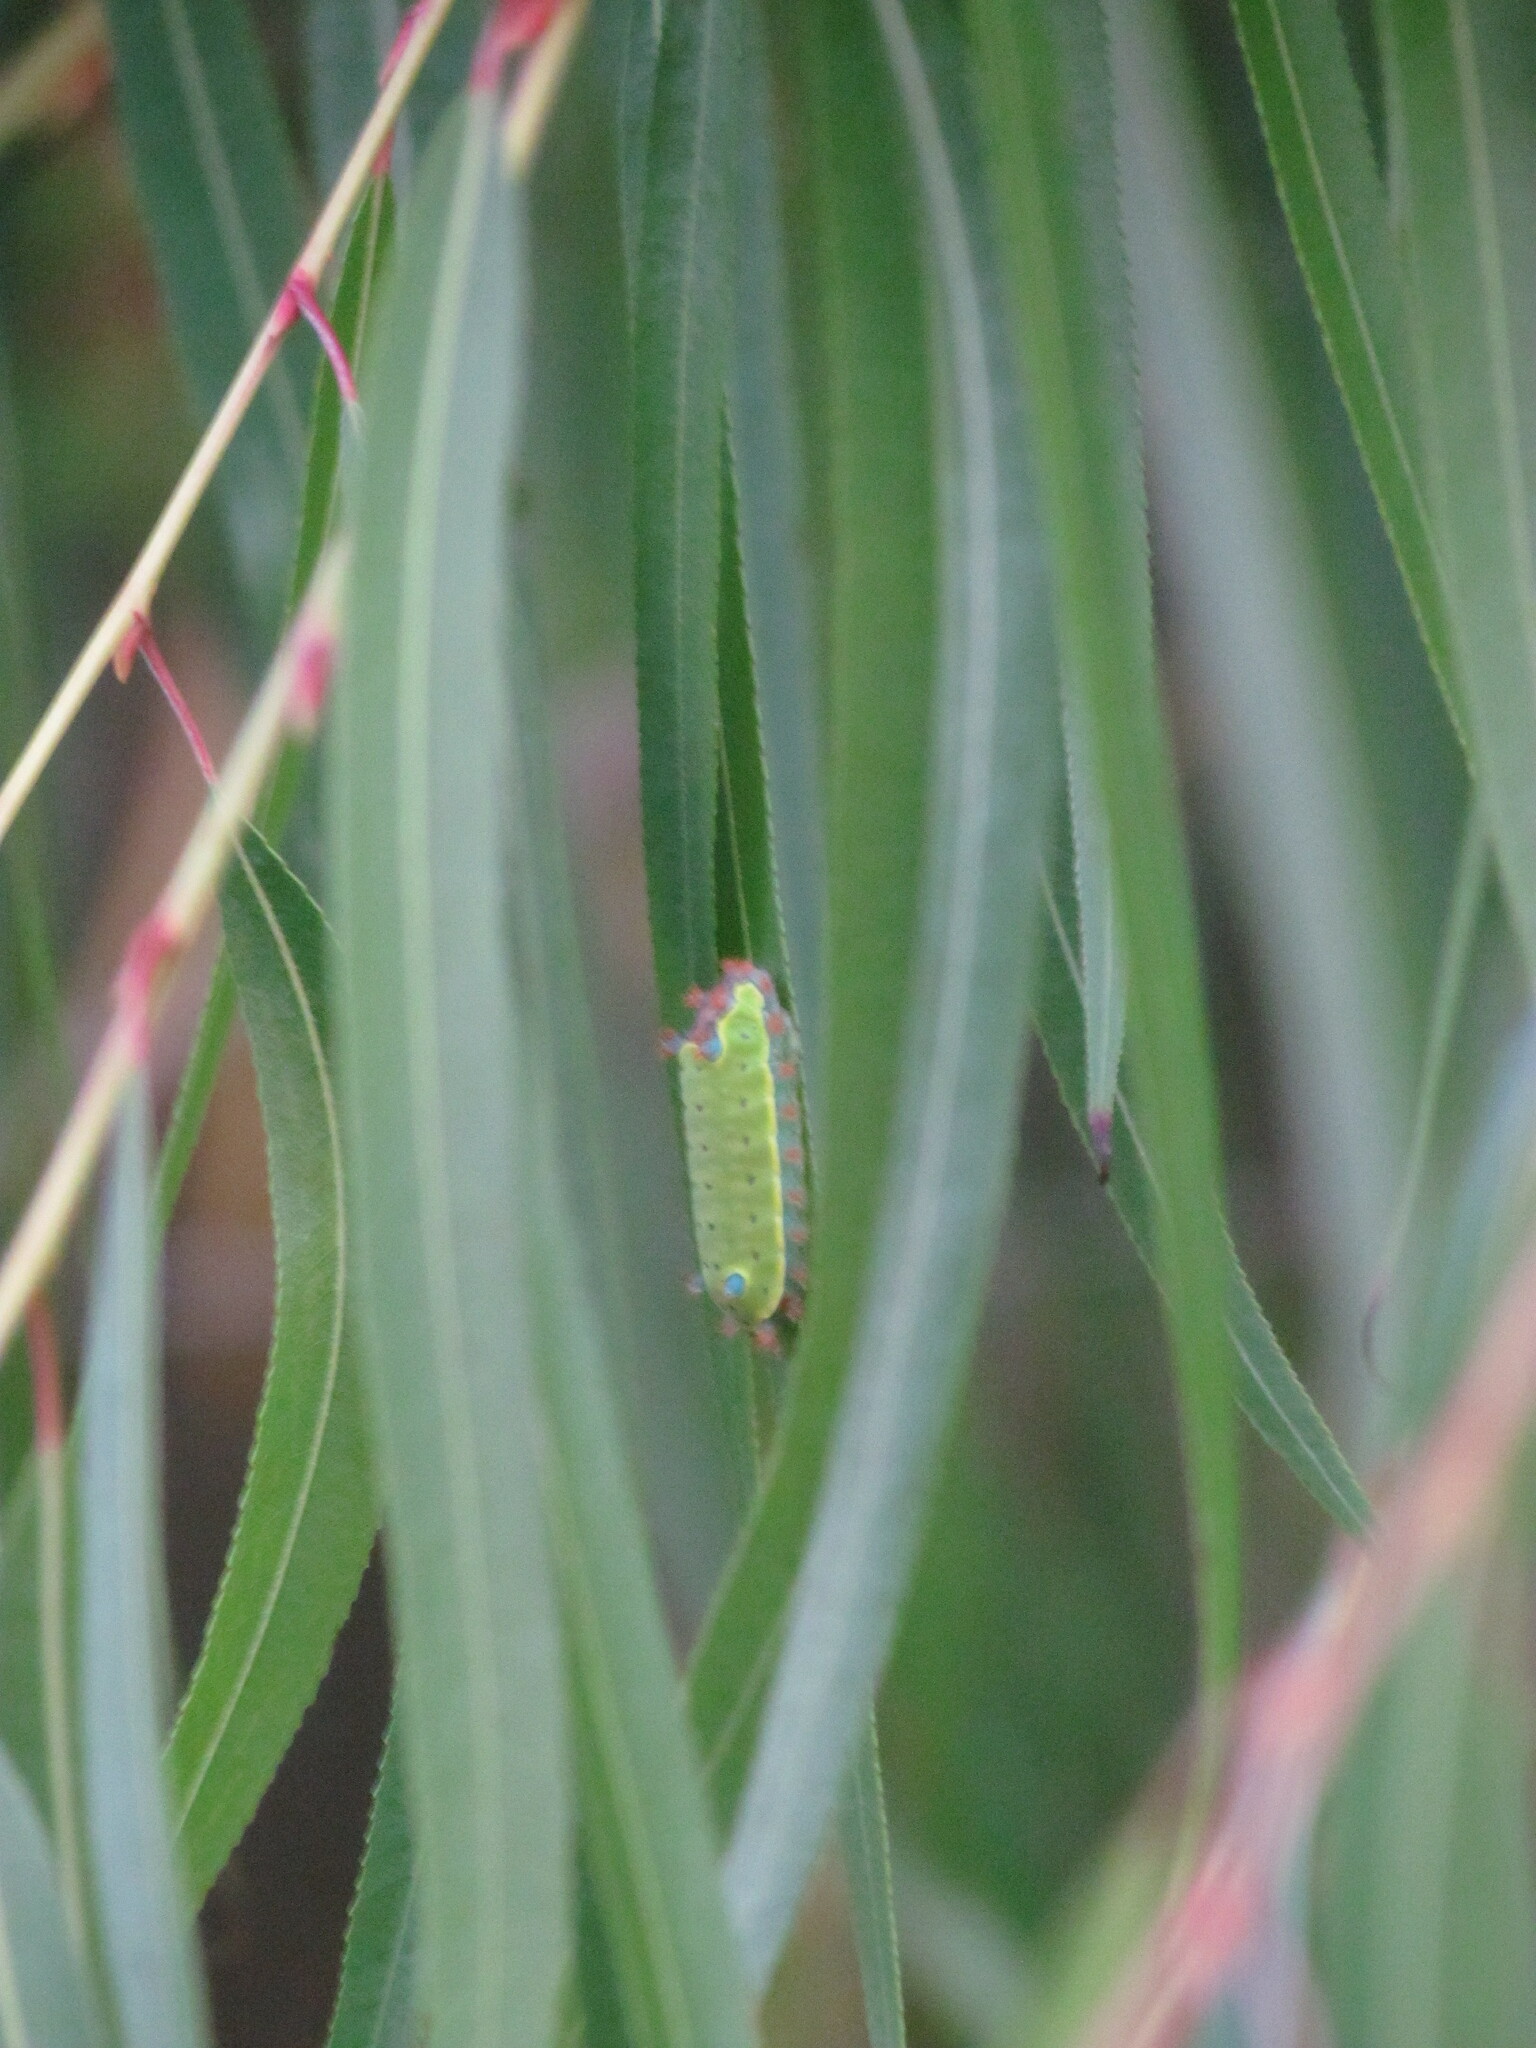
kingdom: Animalia
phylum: Arthropoda
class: Insecta
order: Lepidoptera
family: Limacodidae
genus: Acharia
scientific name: Acharia
